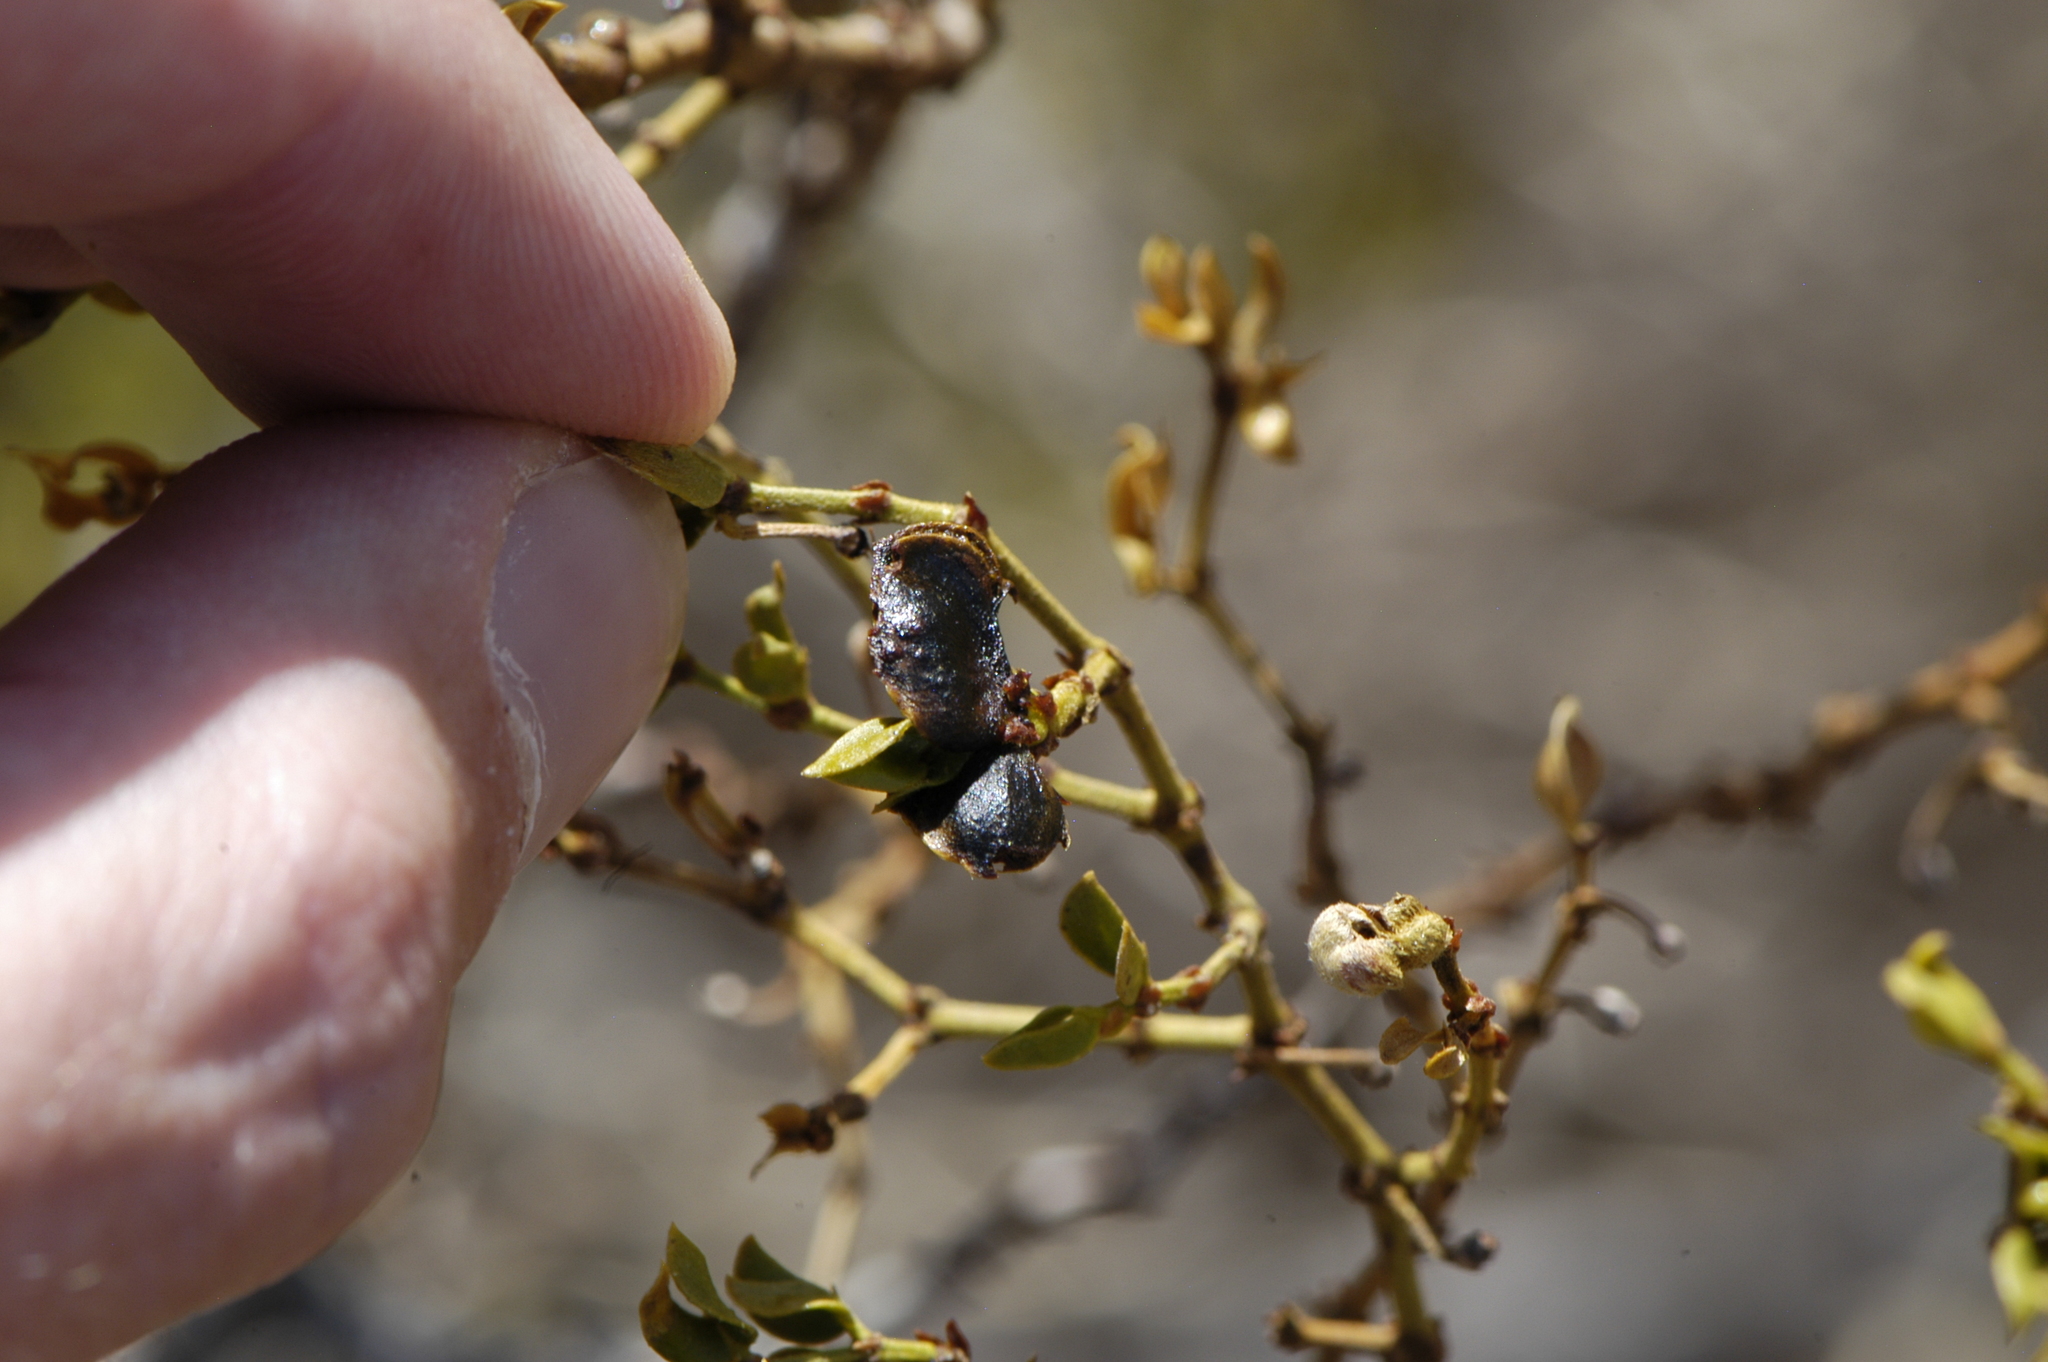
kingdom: Animalia
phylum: Arthropoda
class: Insecta
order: Diptera
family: Cecidomyiidae
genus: Contarinia
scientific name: Contarinia
